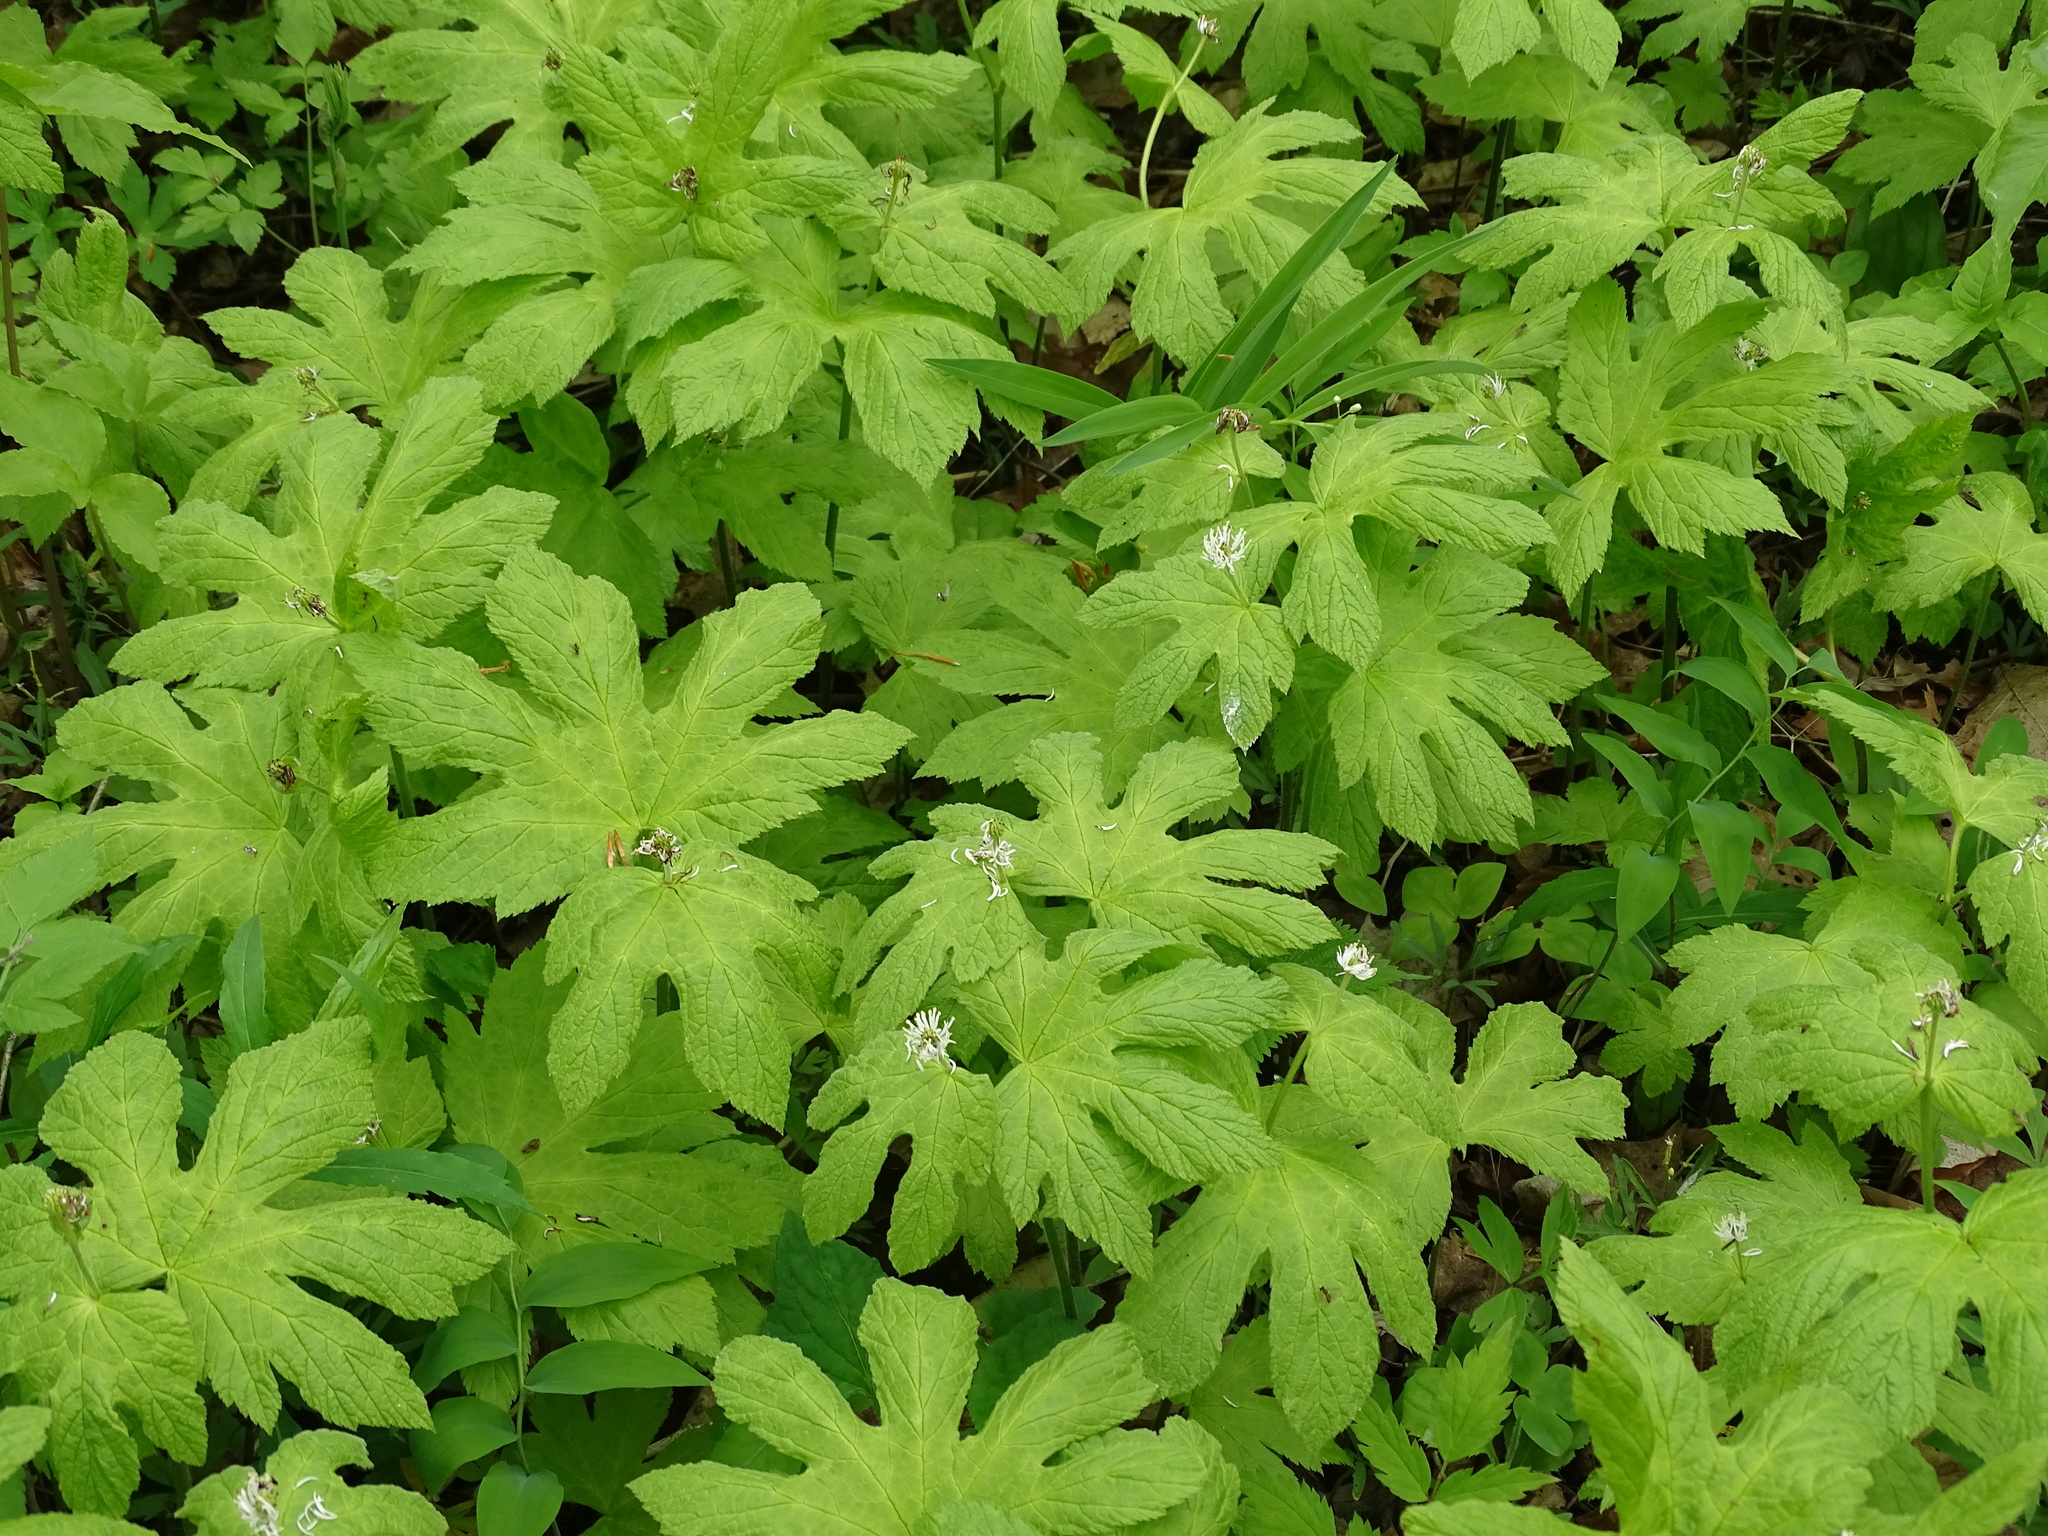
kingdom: Plantae
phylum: Tracheophyta
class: Magnoliopsida
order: Ranunculales
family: Ranunculaceae
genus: Hydrastis
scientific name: Hydrastis canadensis
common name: Goldenseal
